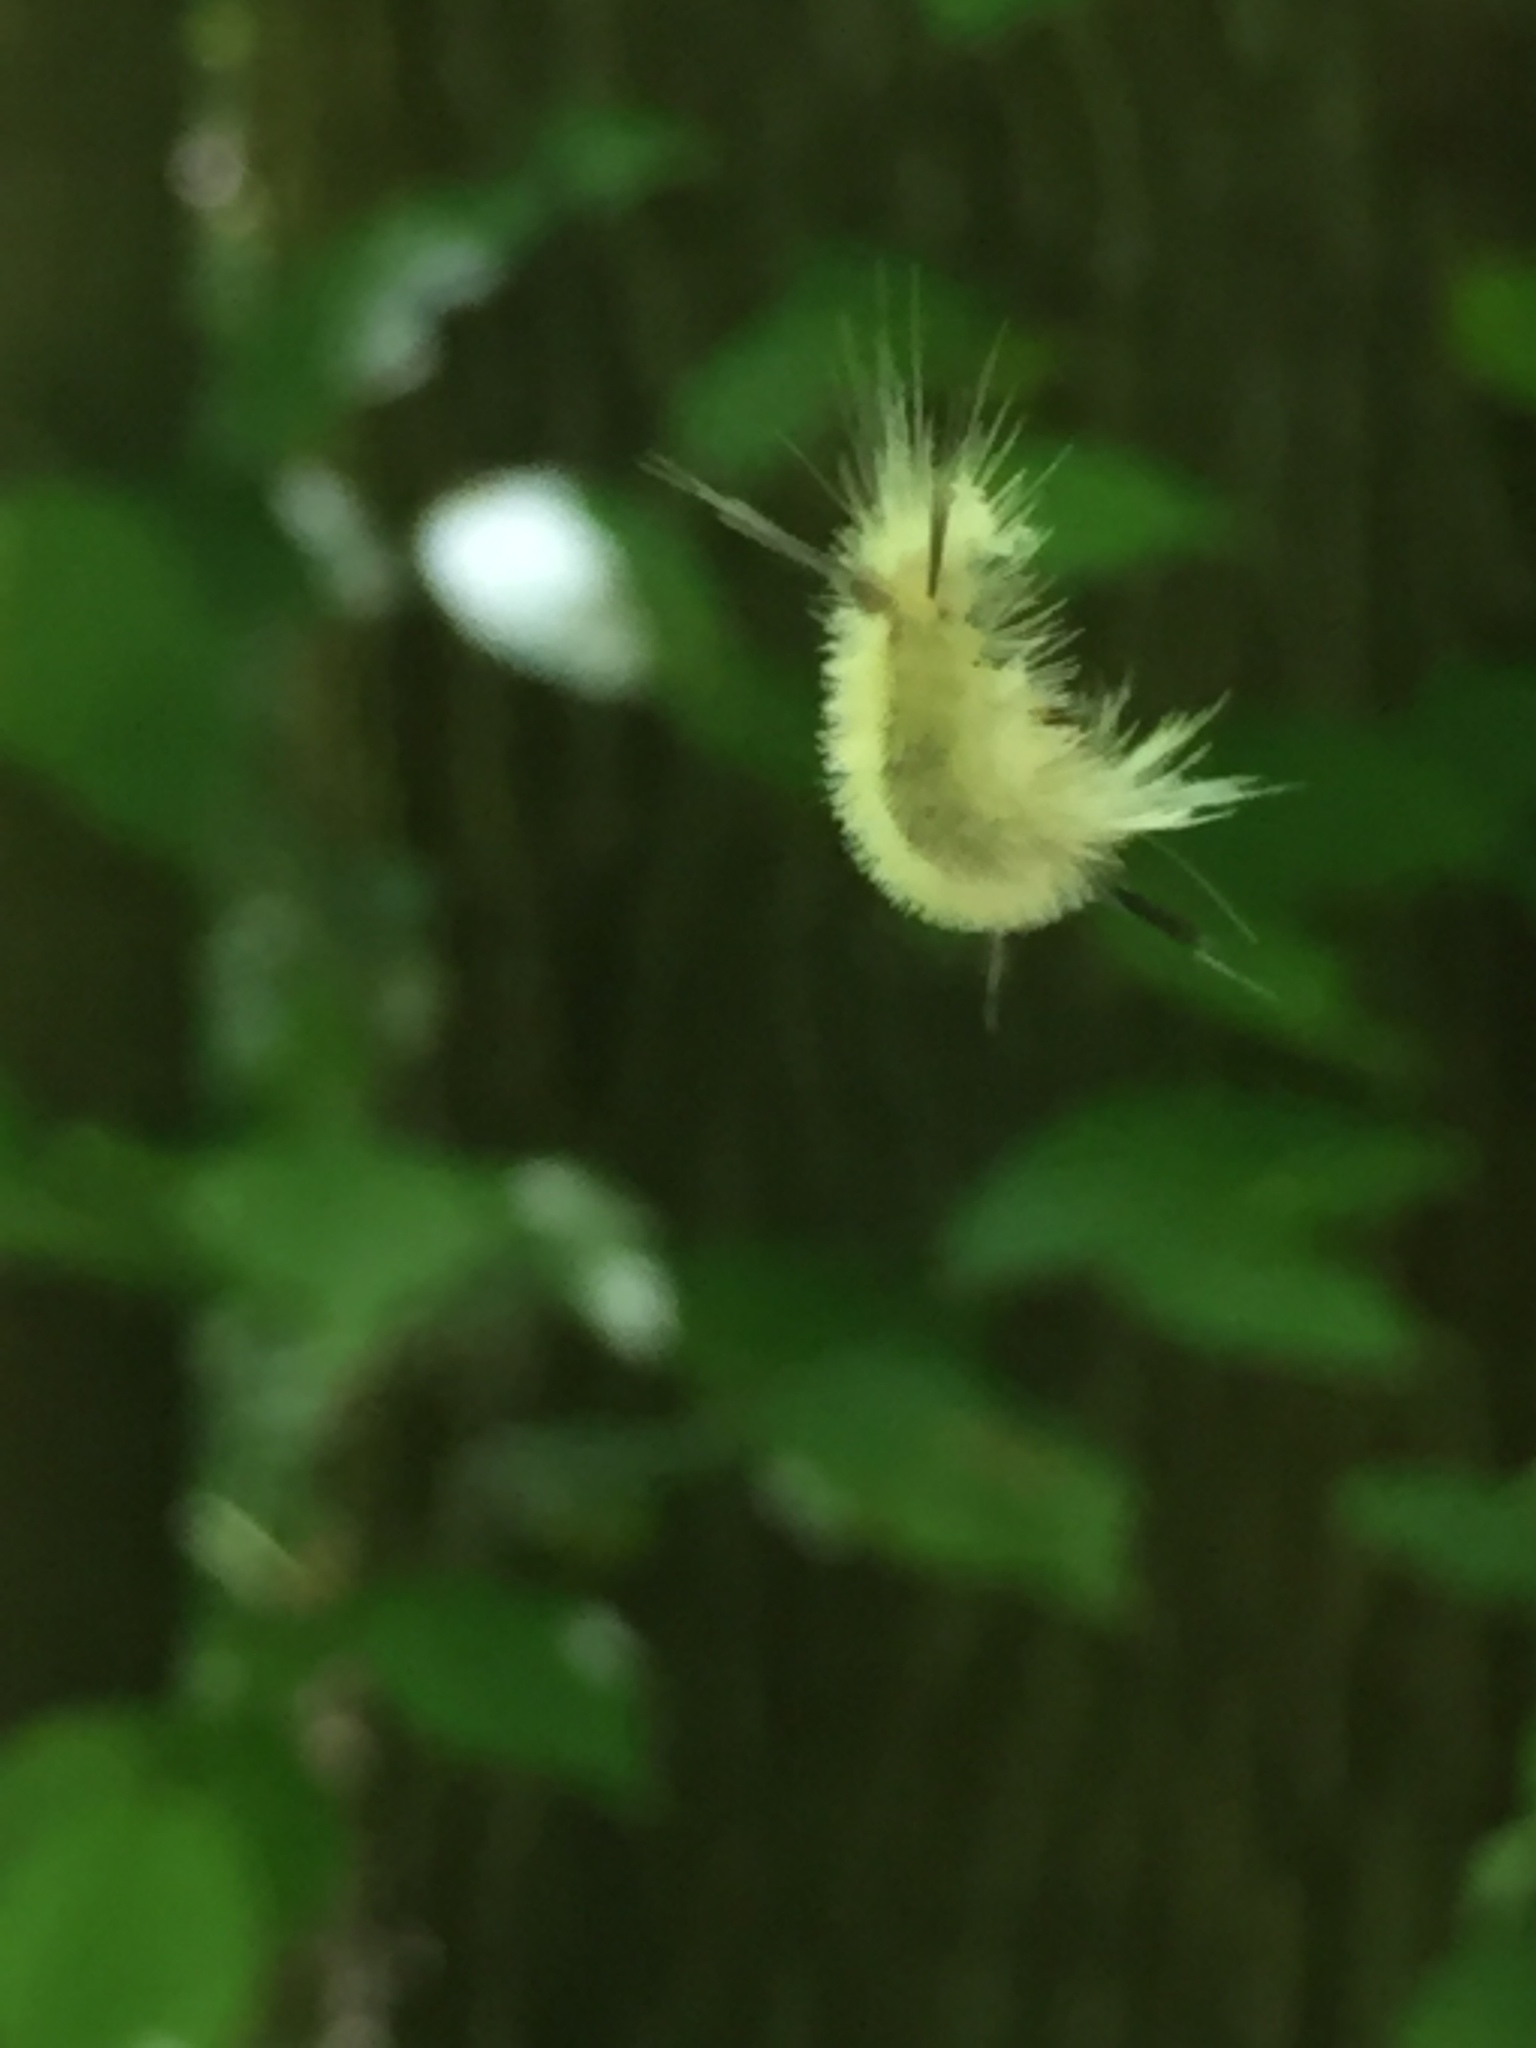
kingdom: Animalia
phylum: Arthropoda
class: Insecta
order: Lepidoptera
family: Erebidae
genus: Halysidota
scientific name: Halysidota tessellaris
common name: Banded tussock moth
